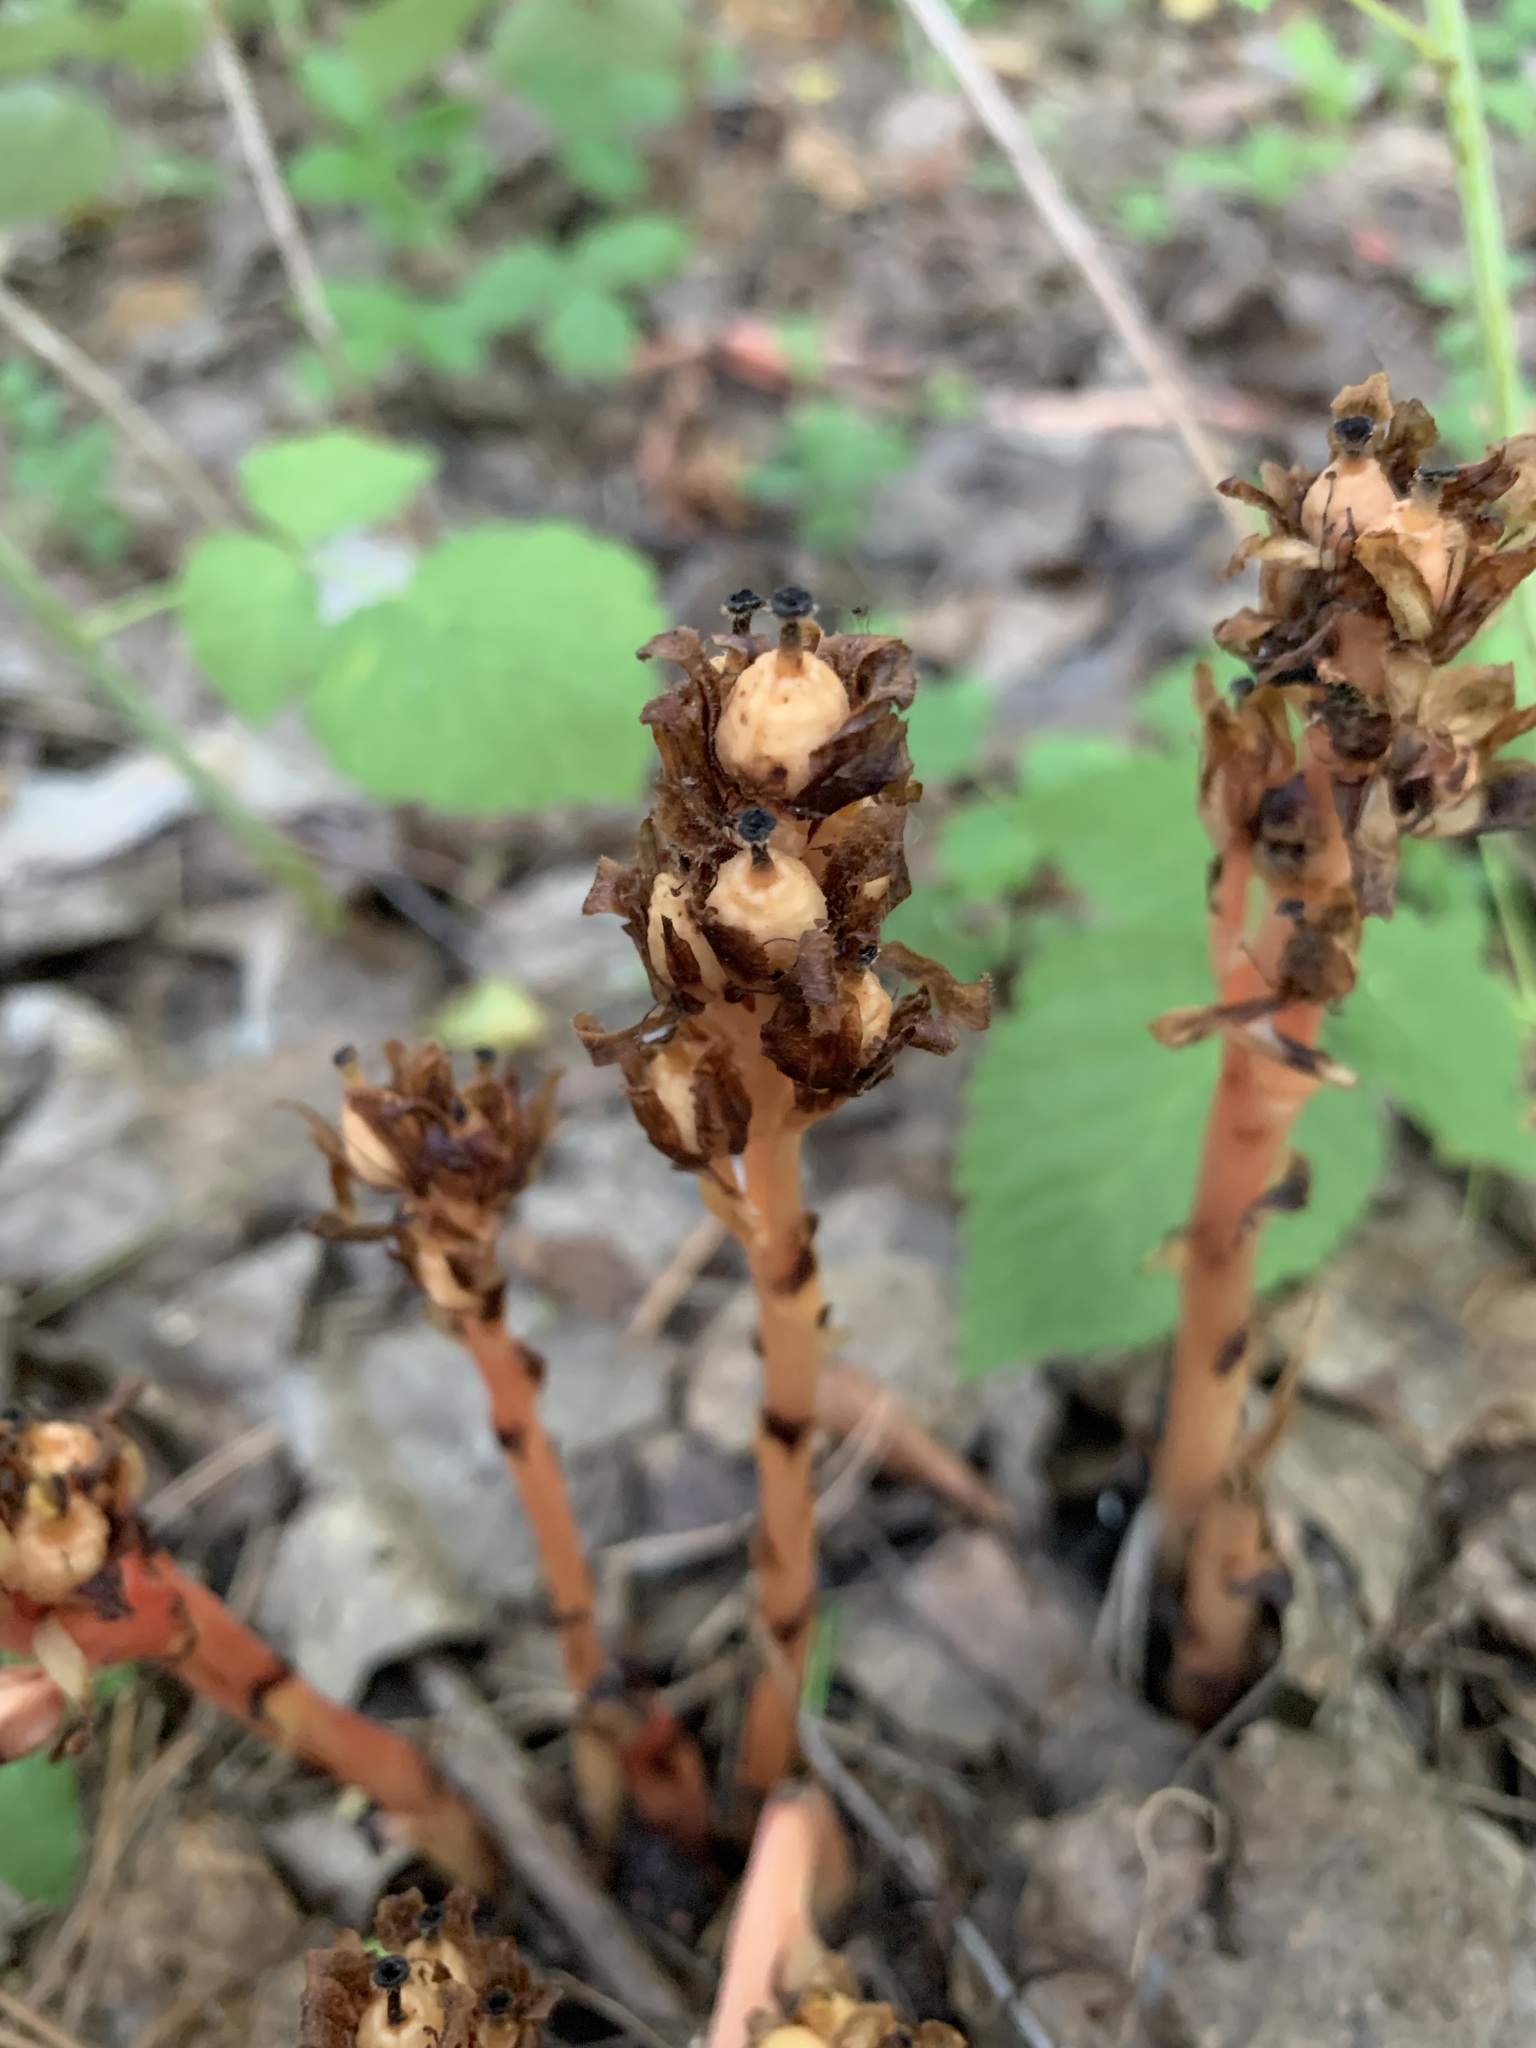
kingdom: Plantae
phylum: Tracheophyta
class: Magnoliopsida
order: Ericales
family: Ericaceae
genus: Hypopitys
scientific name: Hypopitys monotropa
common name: Yellow bird's-nest
